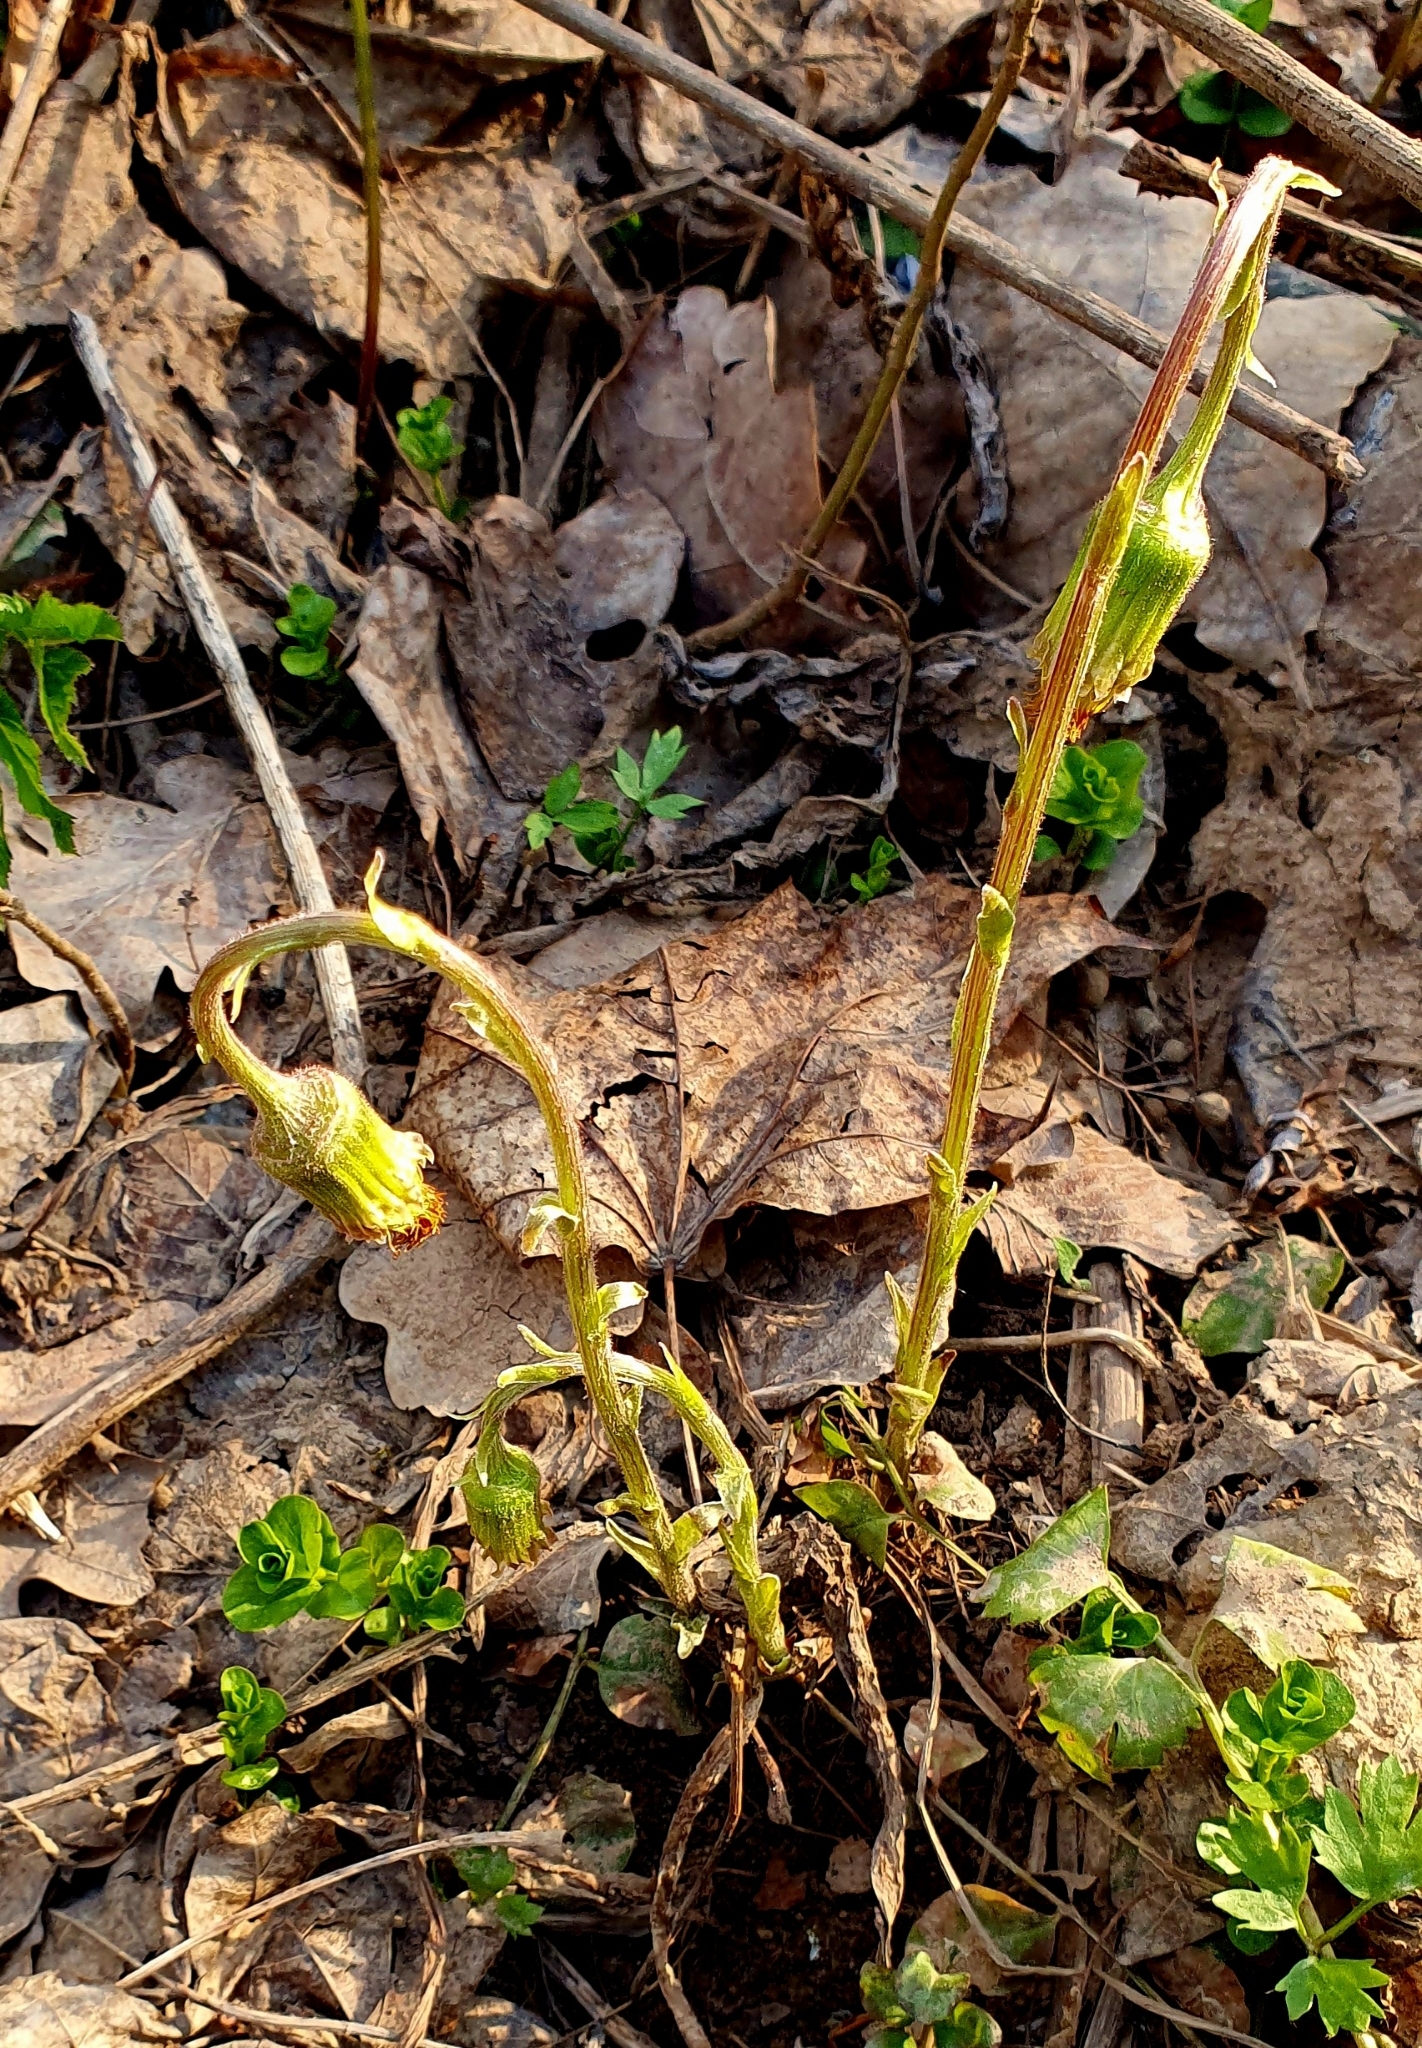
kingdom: Plantae
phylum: Tracheophyta
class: Magnoliopsida
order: Asterales
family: Asteraceae
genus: Tussilago
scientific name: Tussilago farfara
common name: Coltsfoot
